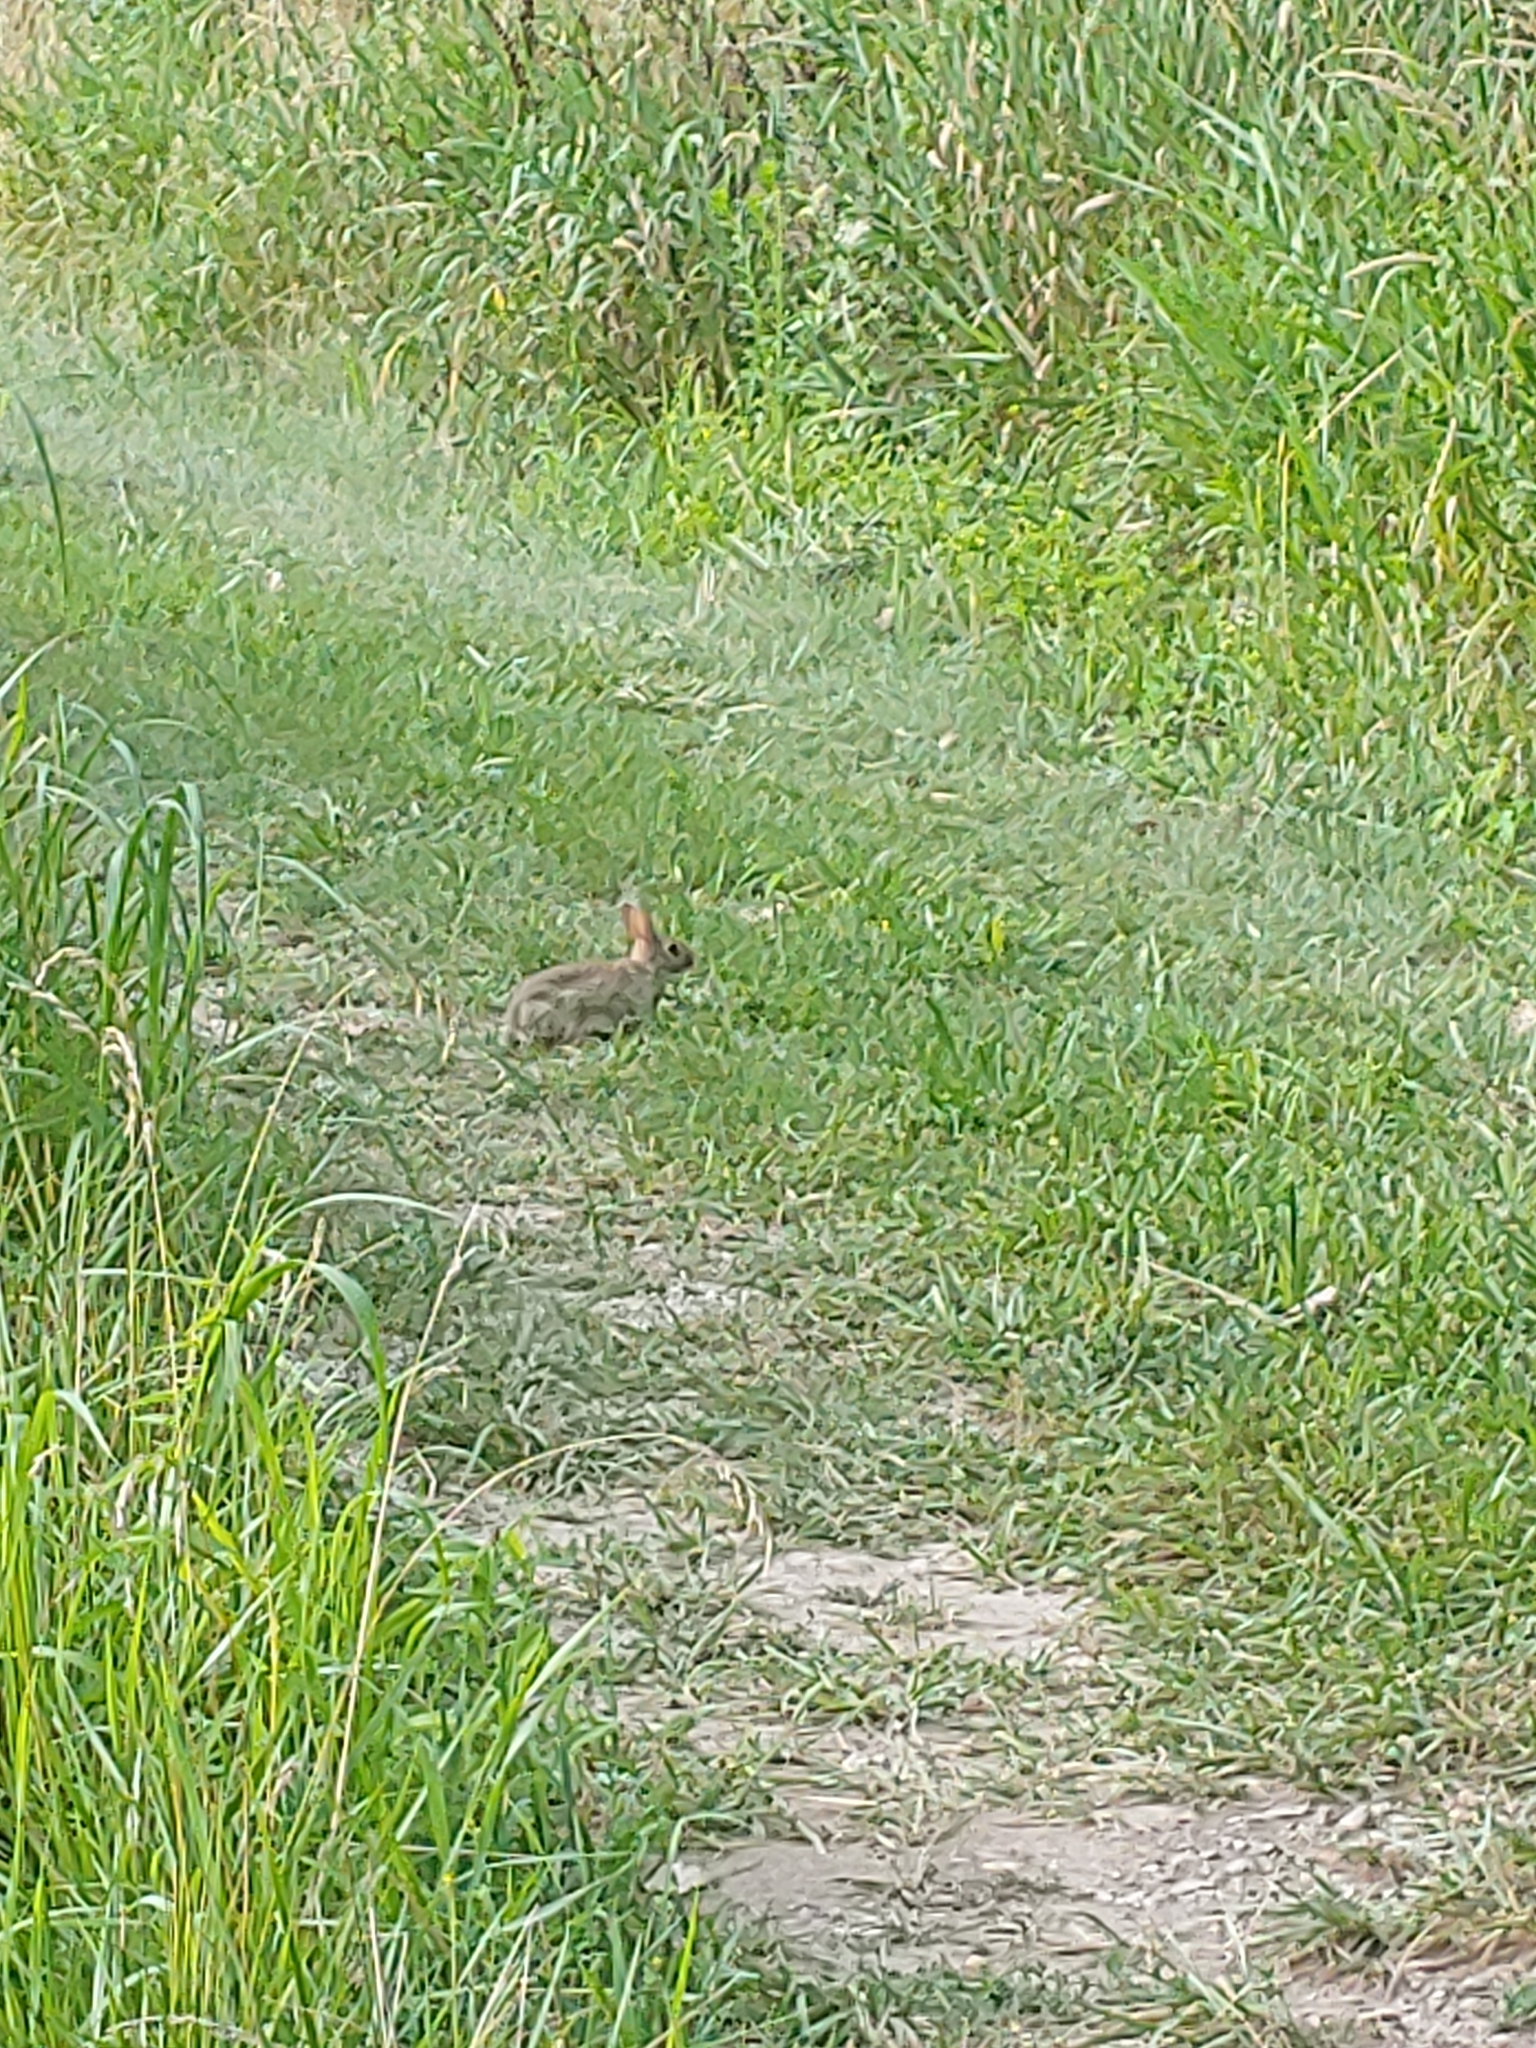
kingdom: Animalia
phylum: Chordata
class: Mammalia
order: Lagomorpha
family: Leporidae
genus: Sylvilagus
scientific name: Sylvilagus floridanus
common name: Eastern cottontail
